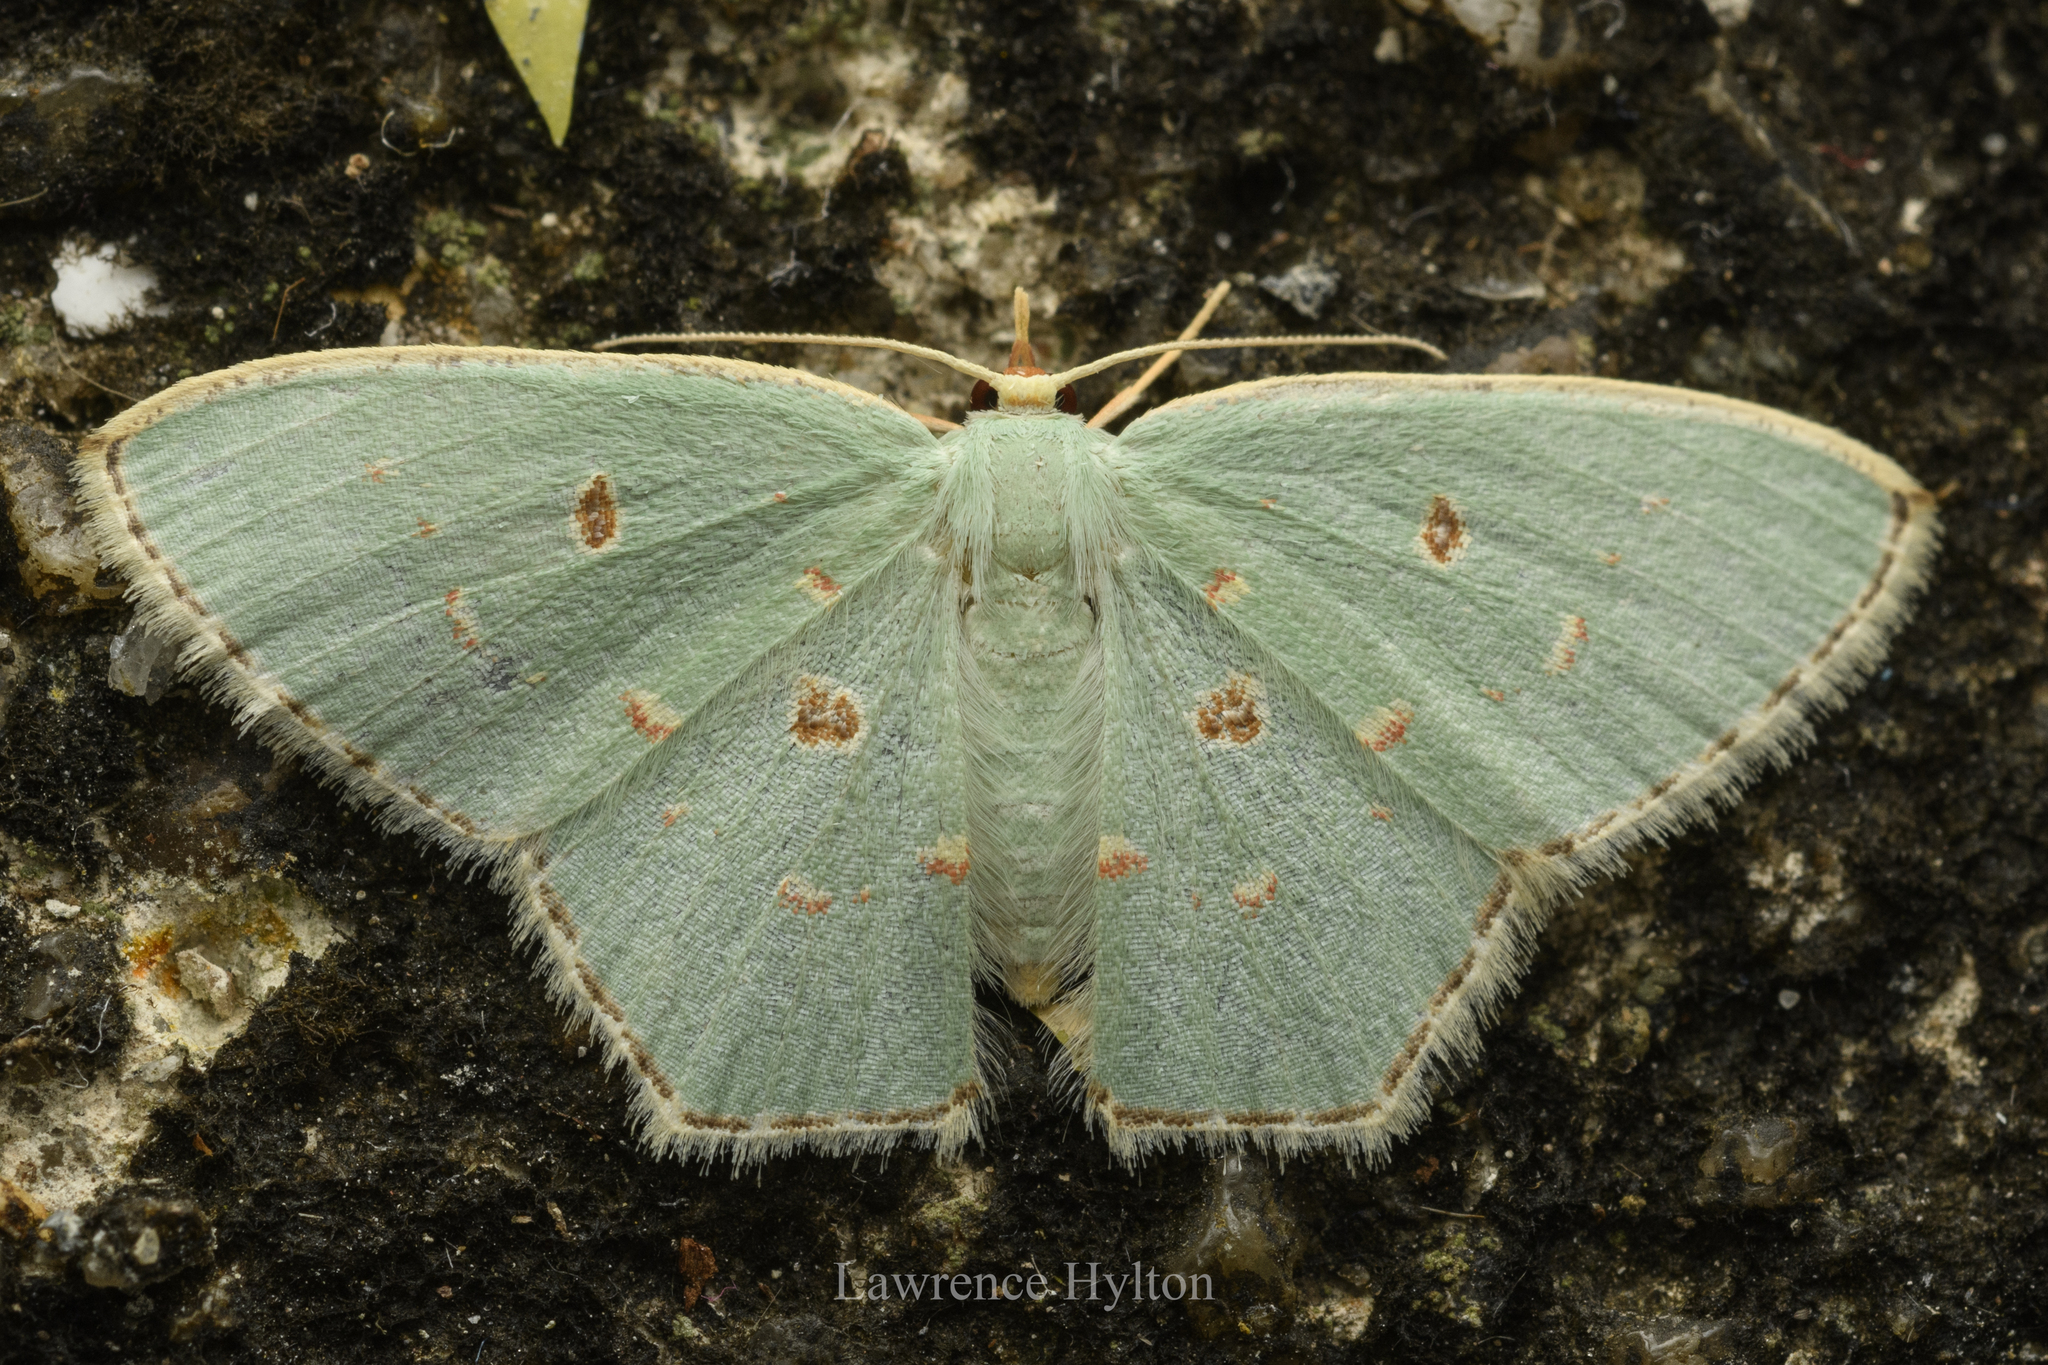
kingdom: Animalia
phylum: Arthropoda
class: Insecta
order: Lepidoptera
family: Geometridae
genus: Comostola
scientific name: Comostola meritaria
